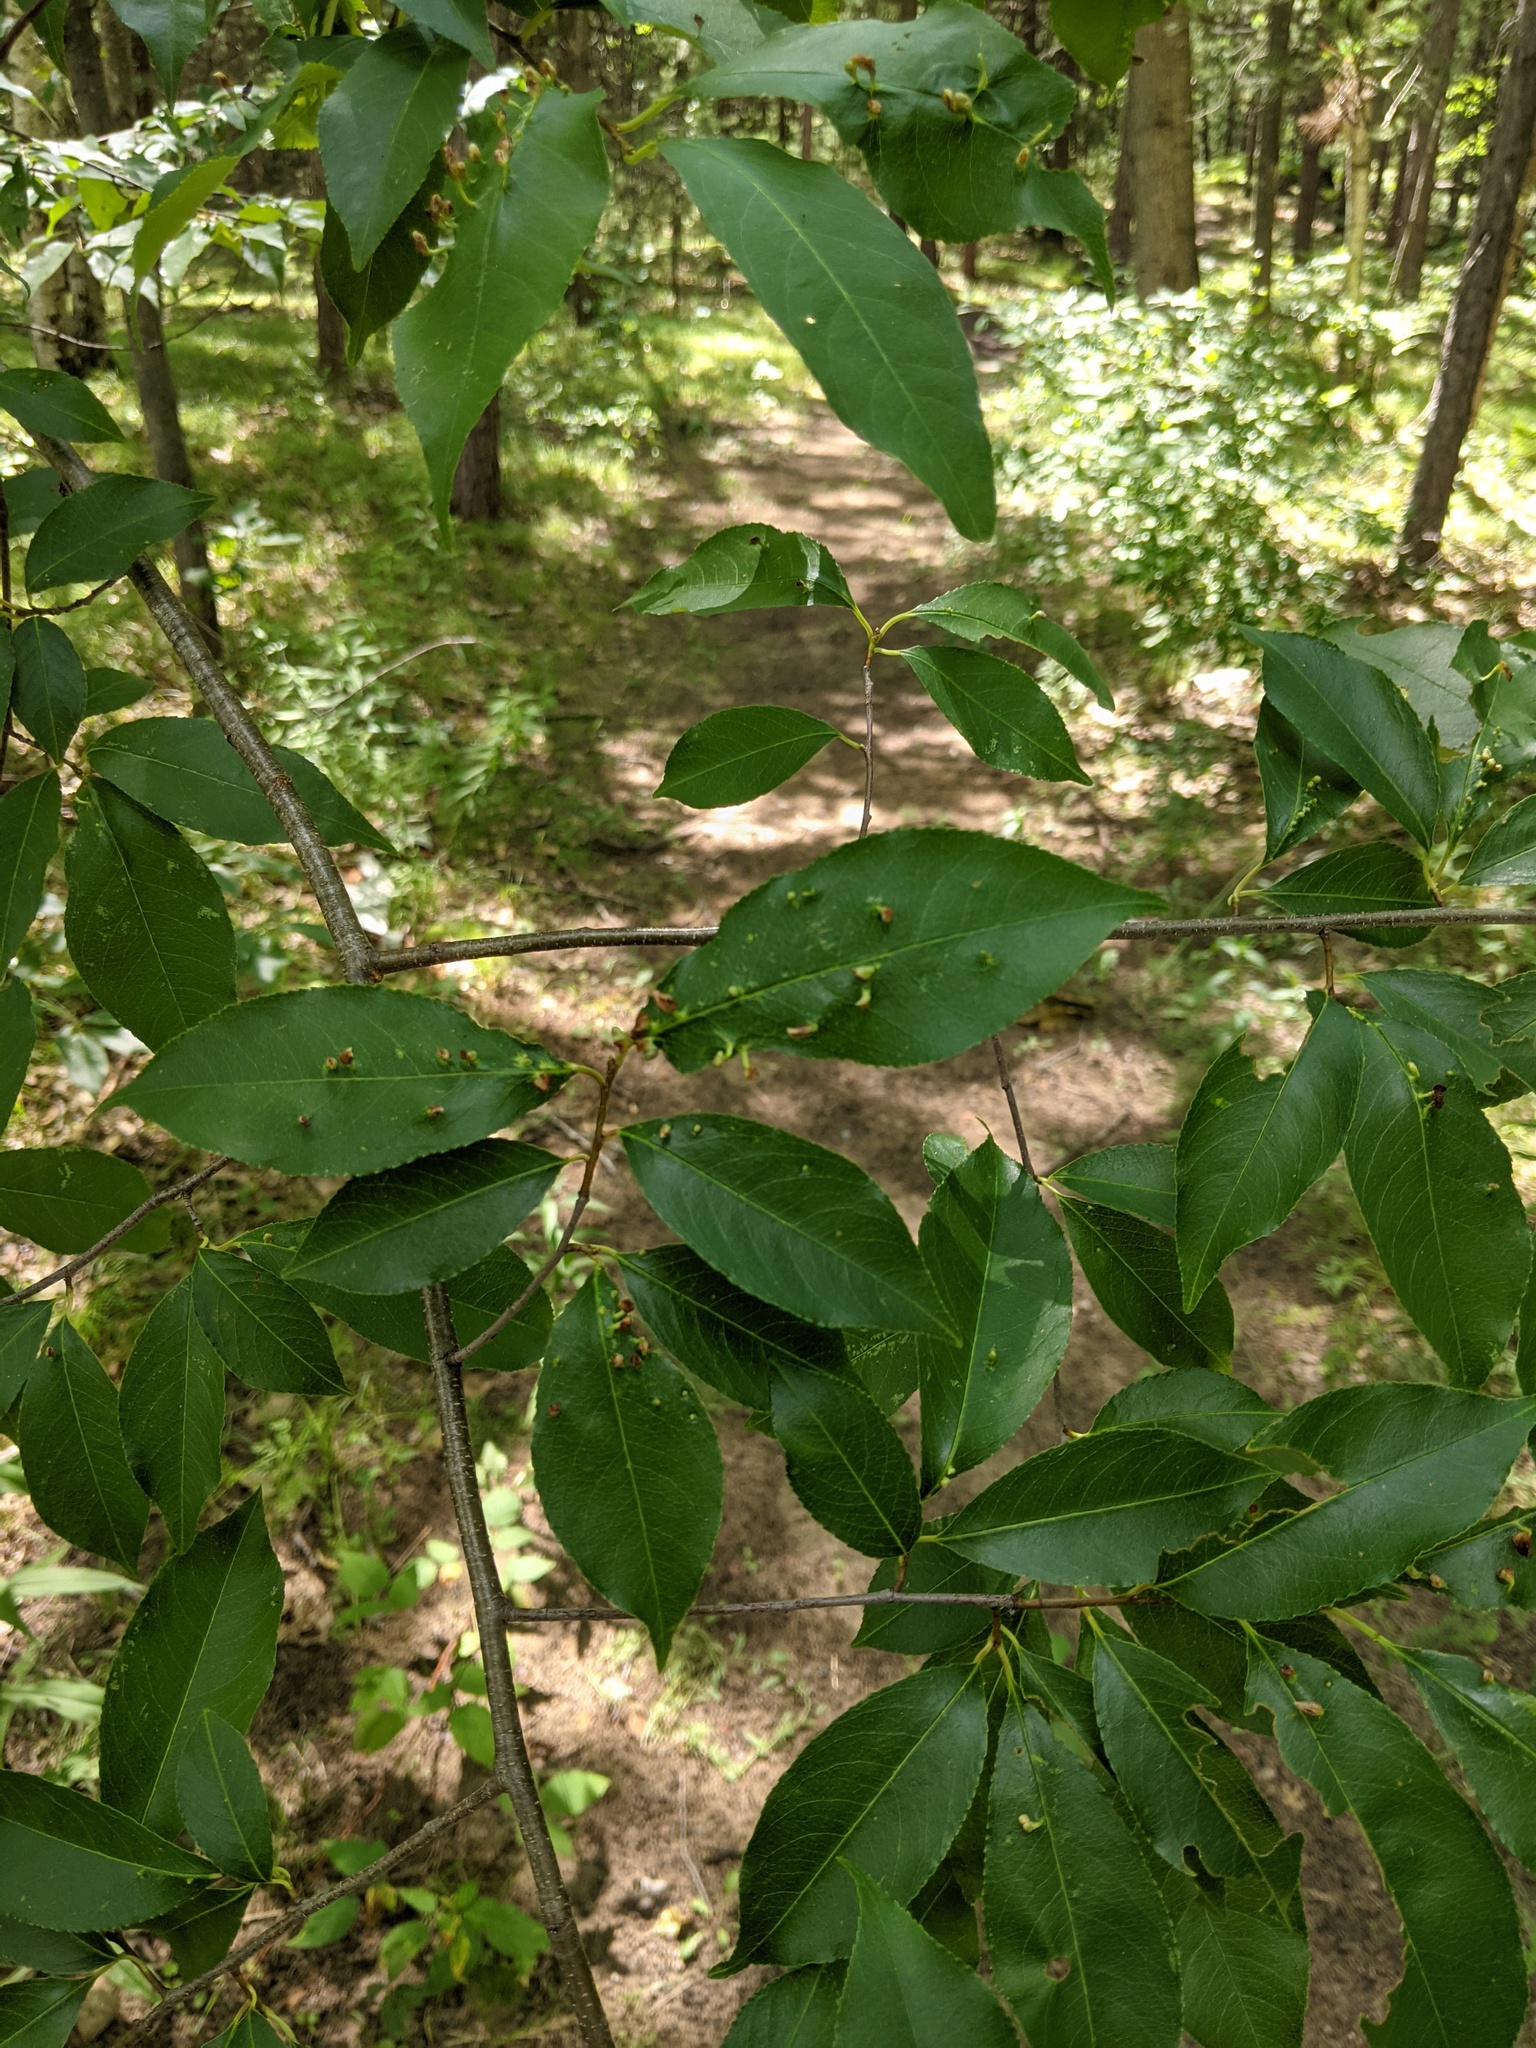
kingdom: Animalia
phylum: Arthropoda
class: Arachnida
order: Trombidiformes
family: Eriophyidae
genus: Eriophyes
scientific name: Eriophyes
